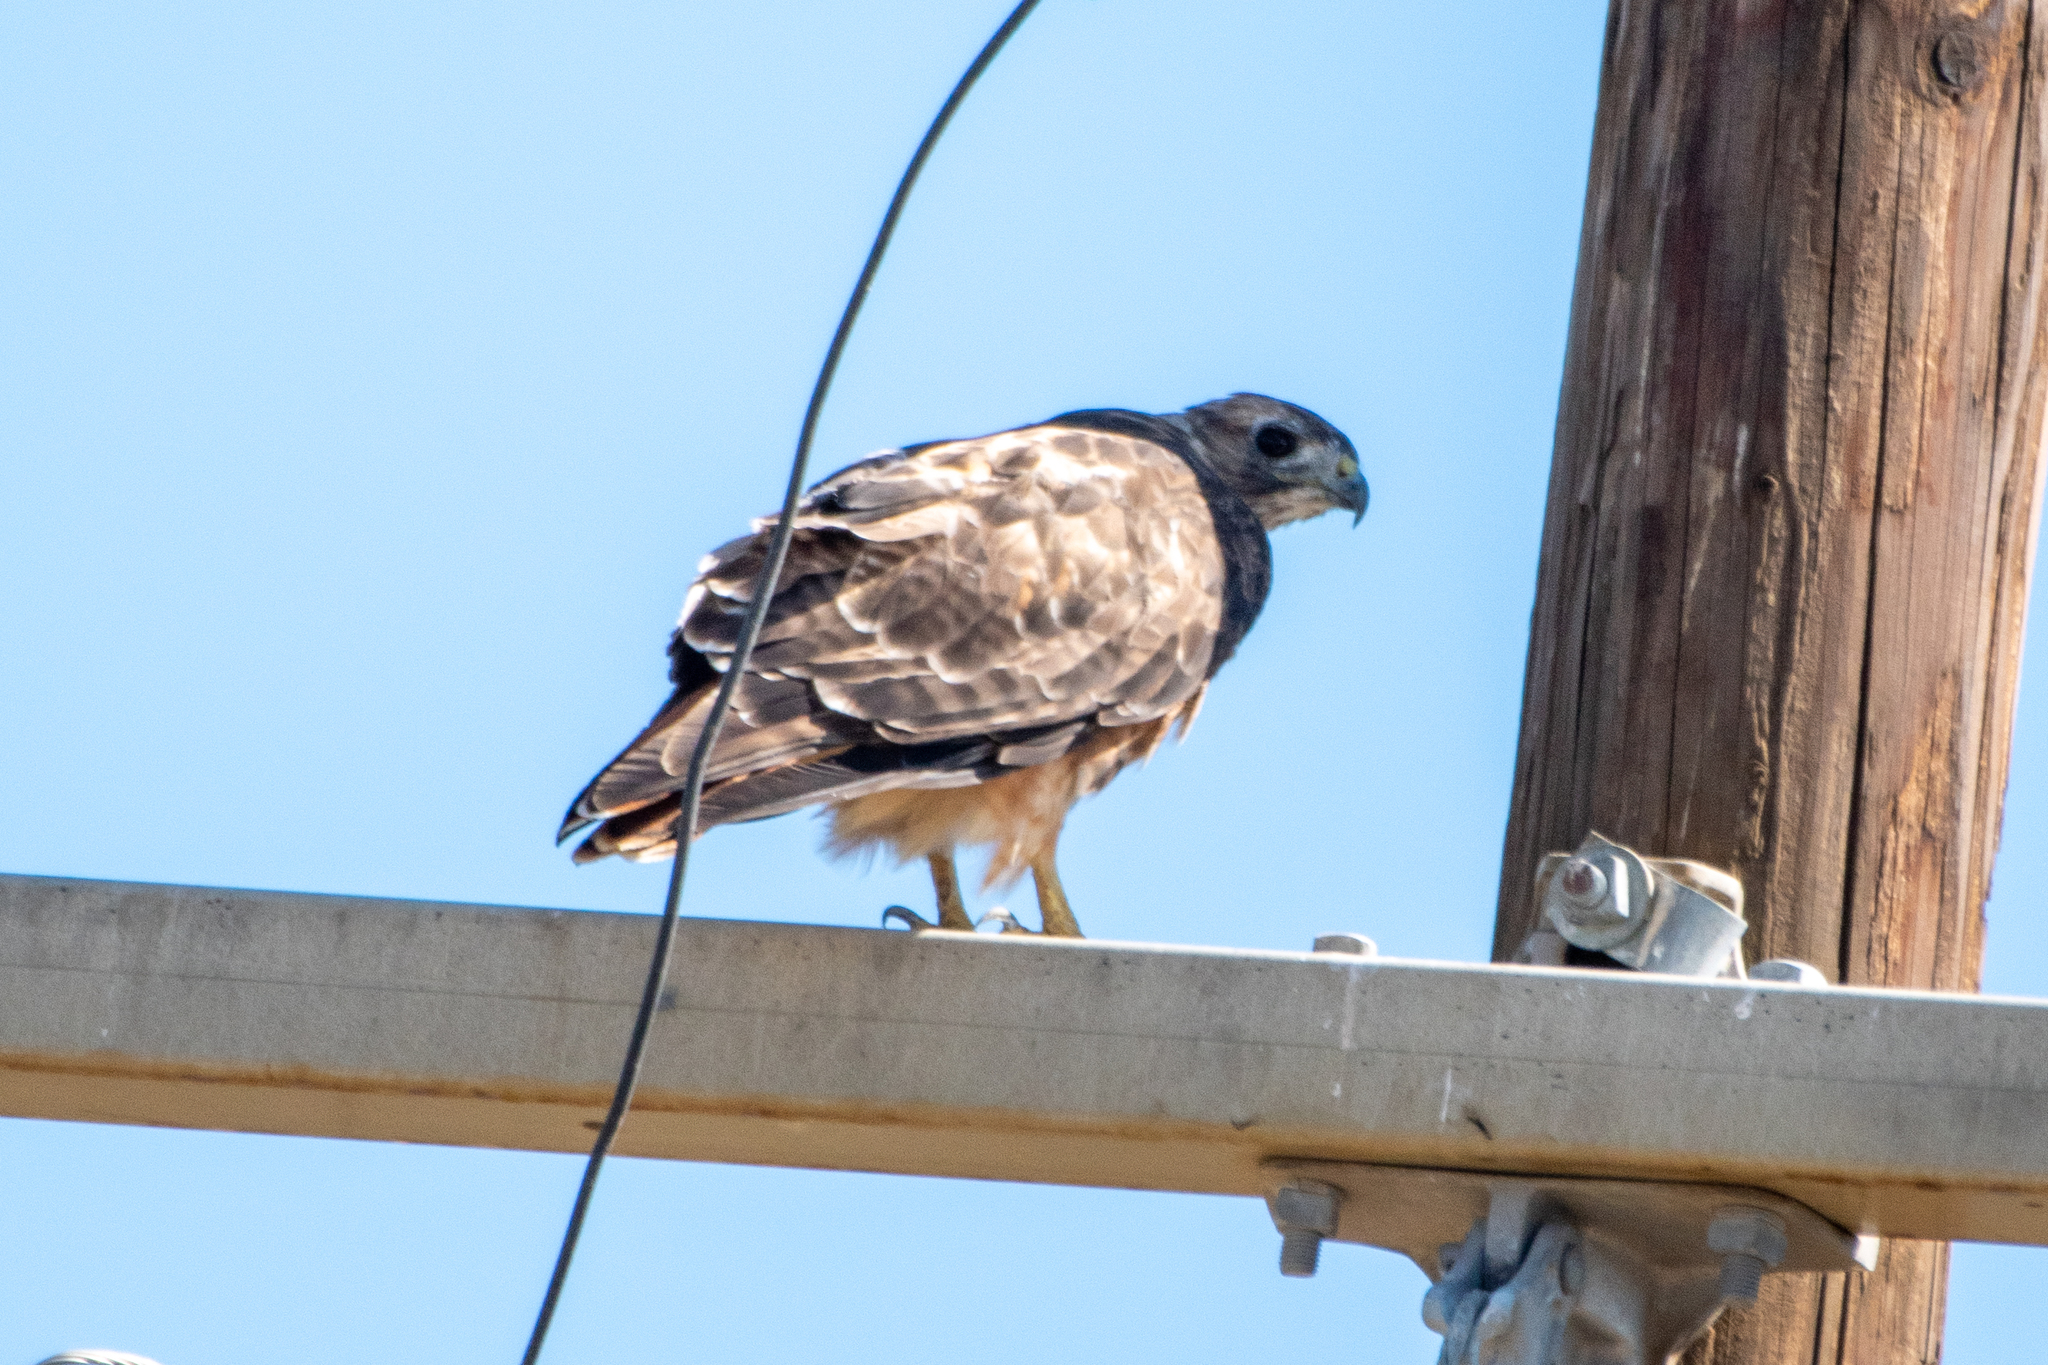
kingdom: Animalia
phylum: Chordata
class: Aves
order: Accipitriformes
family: Accipitridae
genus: Buteo
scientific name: Buteo jamaicensis
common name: Red-tailed hawk
